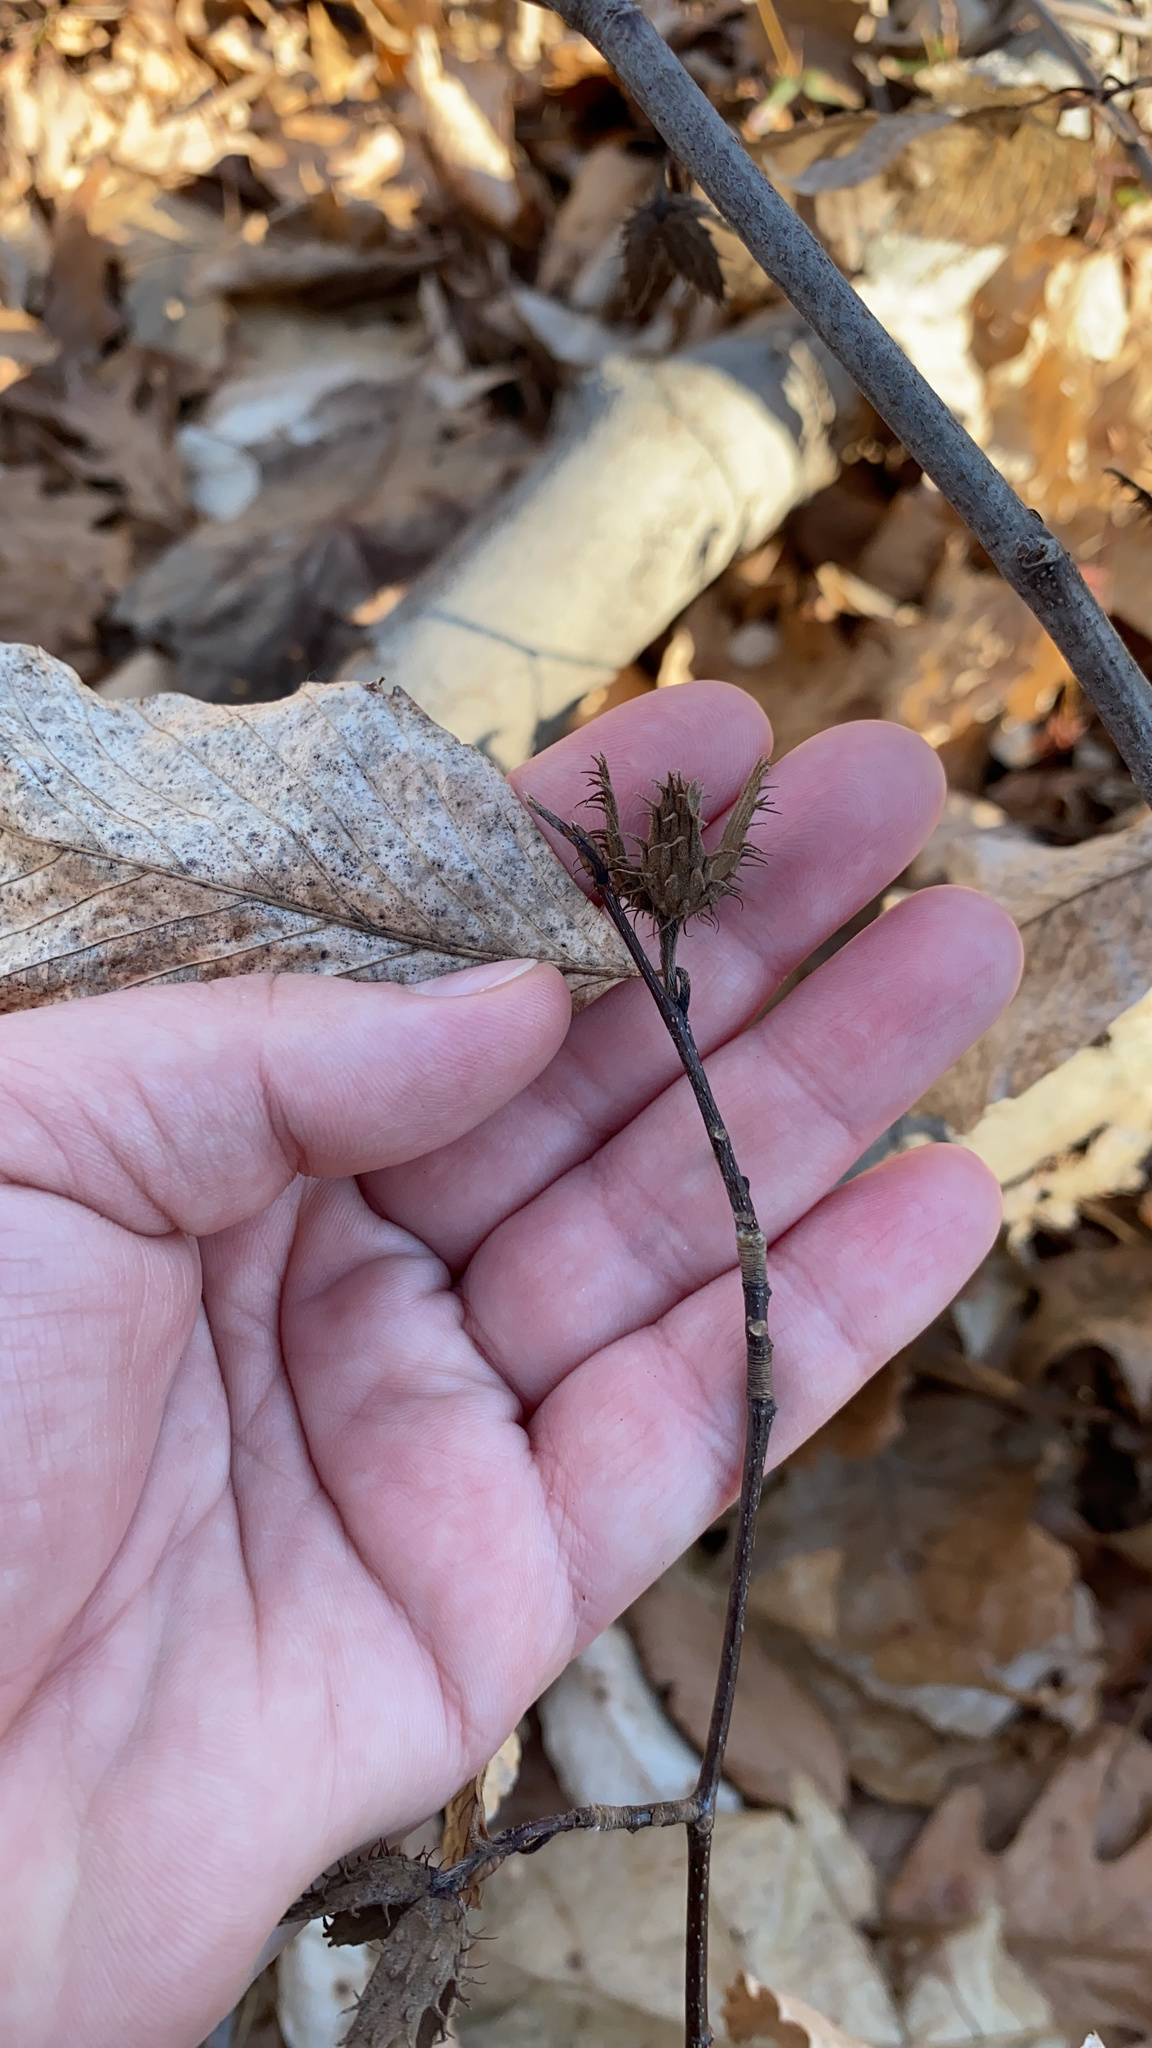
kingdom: Plantae
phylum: Tracheophyta
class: Magnoliopsida
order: Fagales
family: Fagaceae
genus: Fagus
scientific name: Fagus grandifolia
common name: American beech
